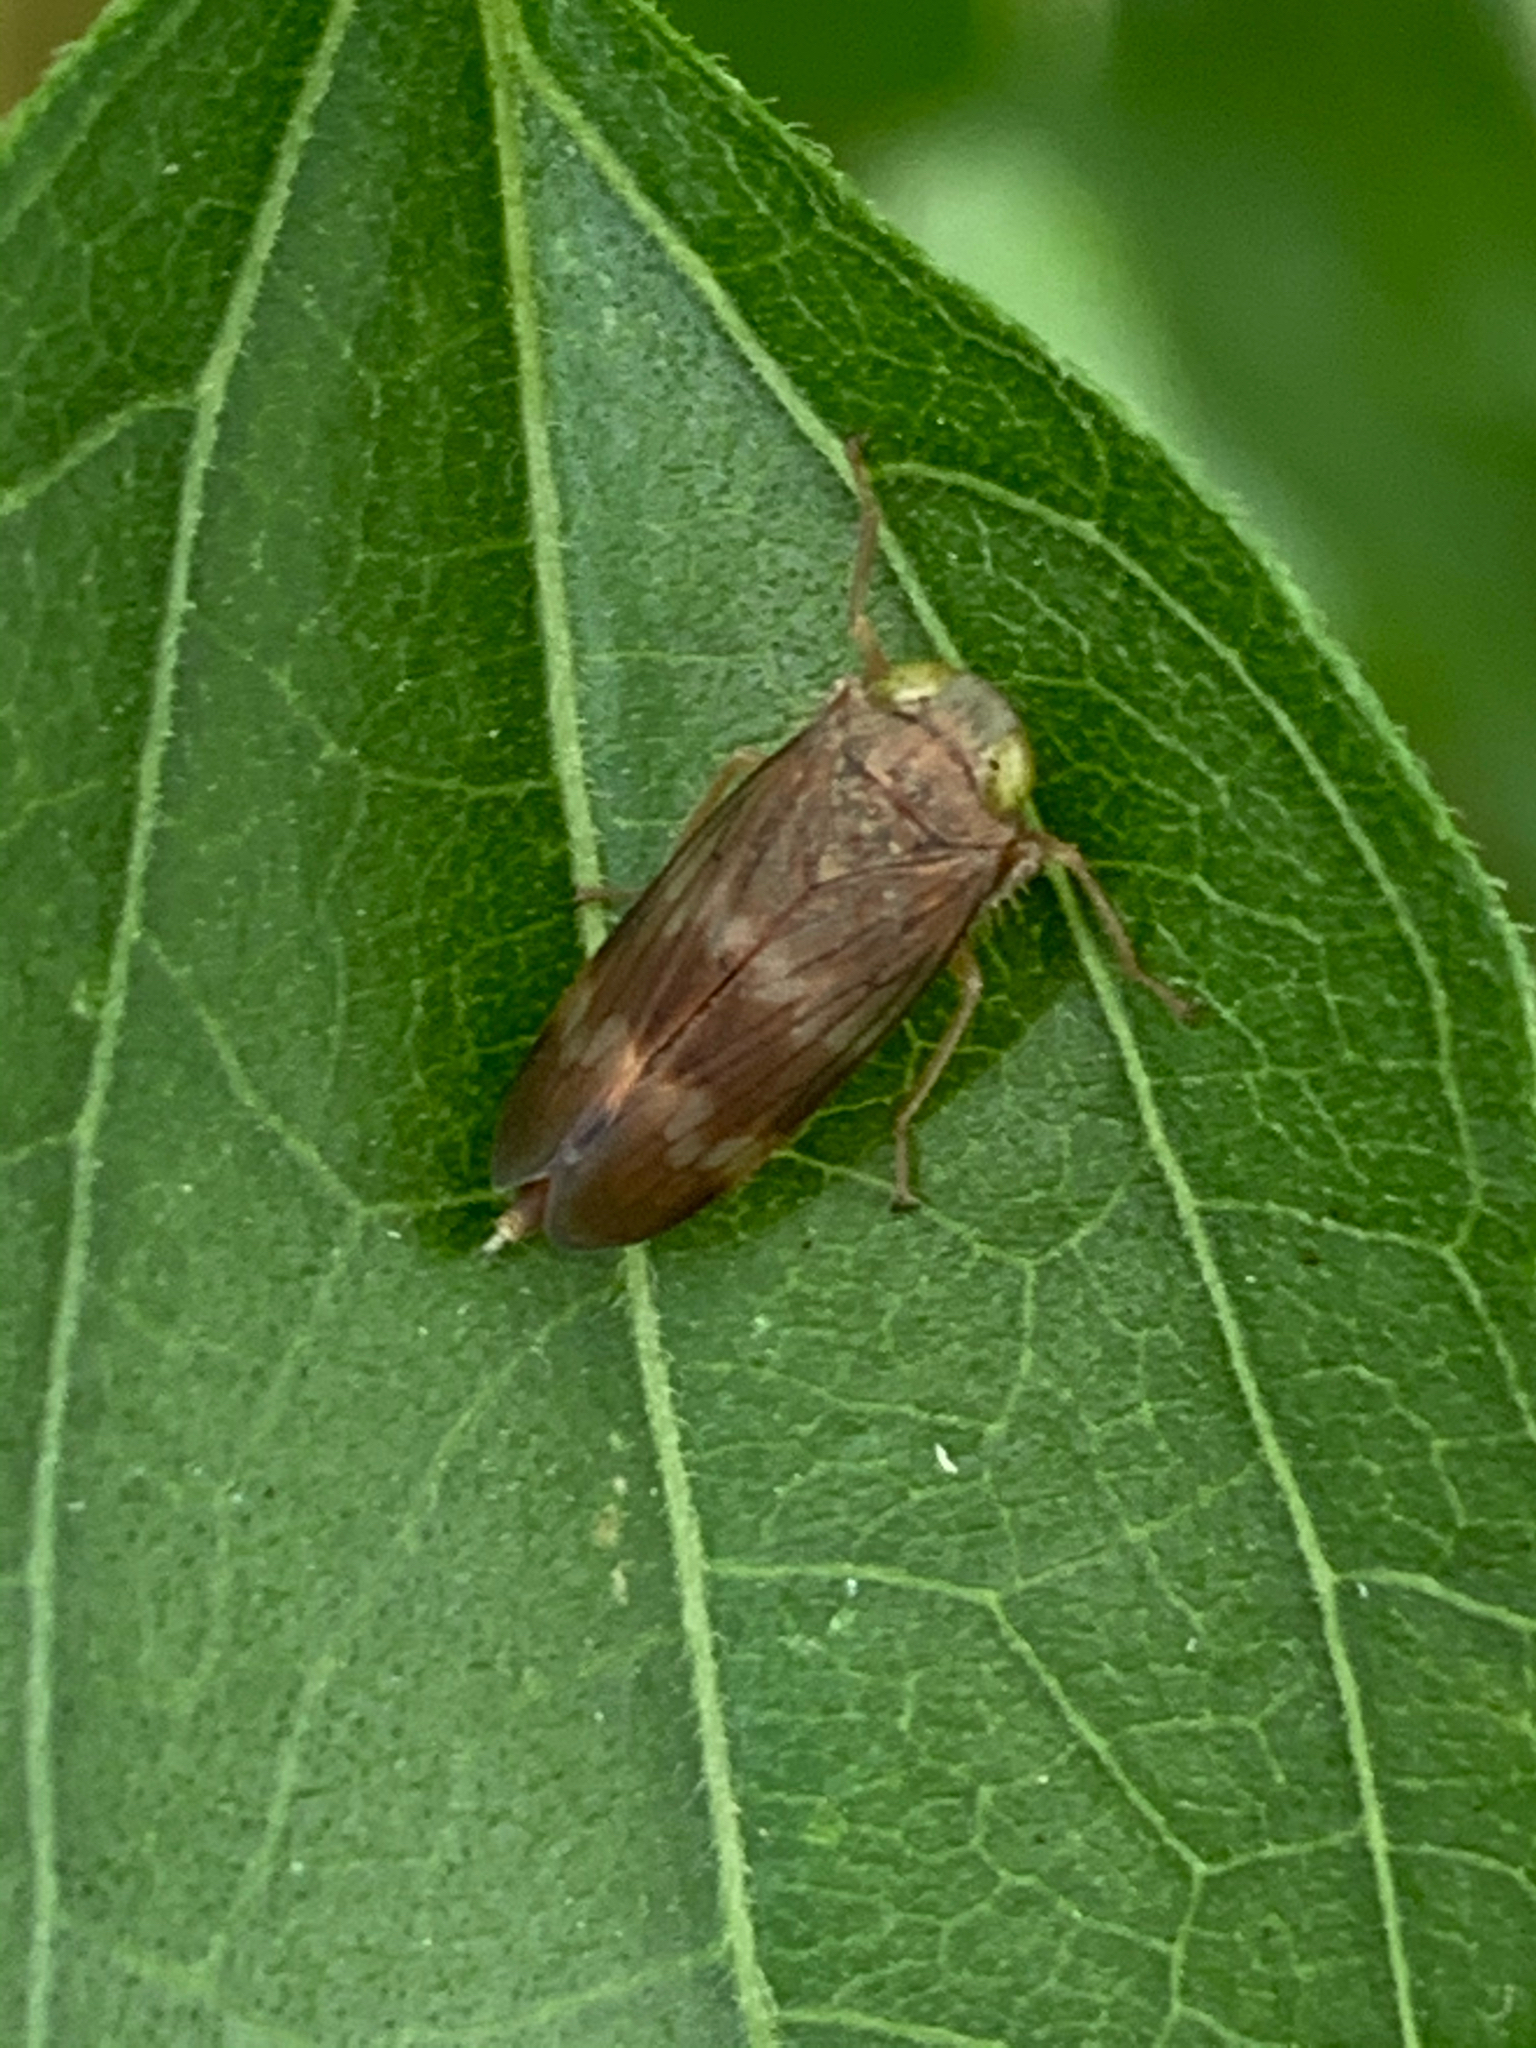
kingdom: Animalia
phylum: Arthropoda
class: Insecta
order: Hemiptera
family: Cicadellidae
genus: Jikradia
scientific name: Jikradia olitoria
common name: Coppery leafhopper
